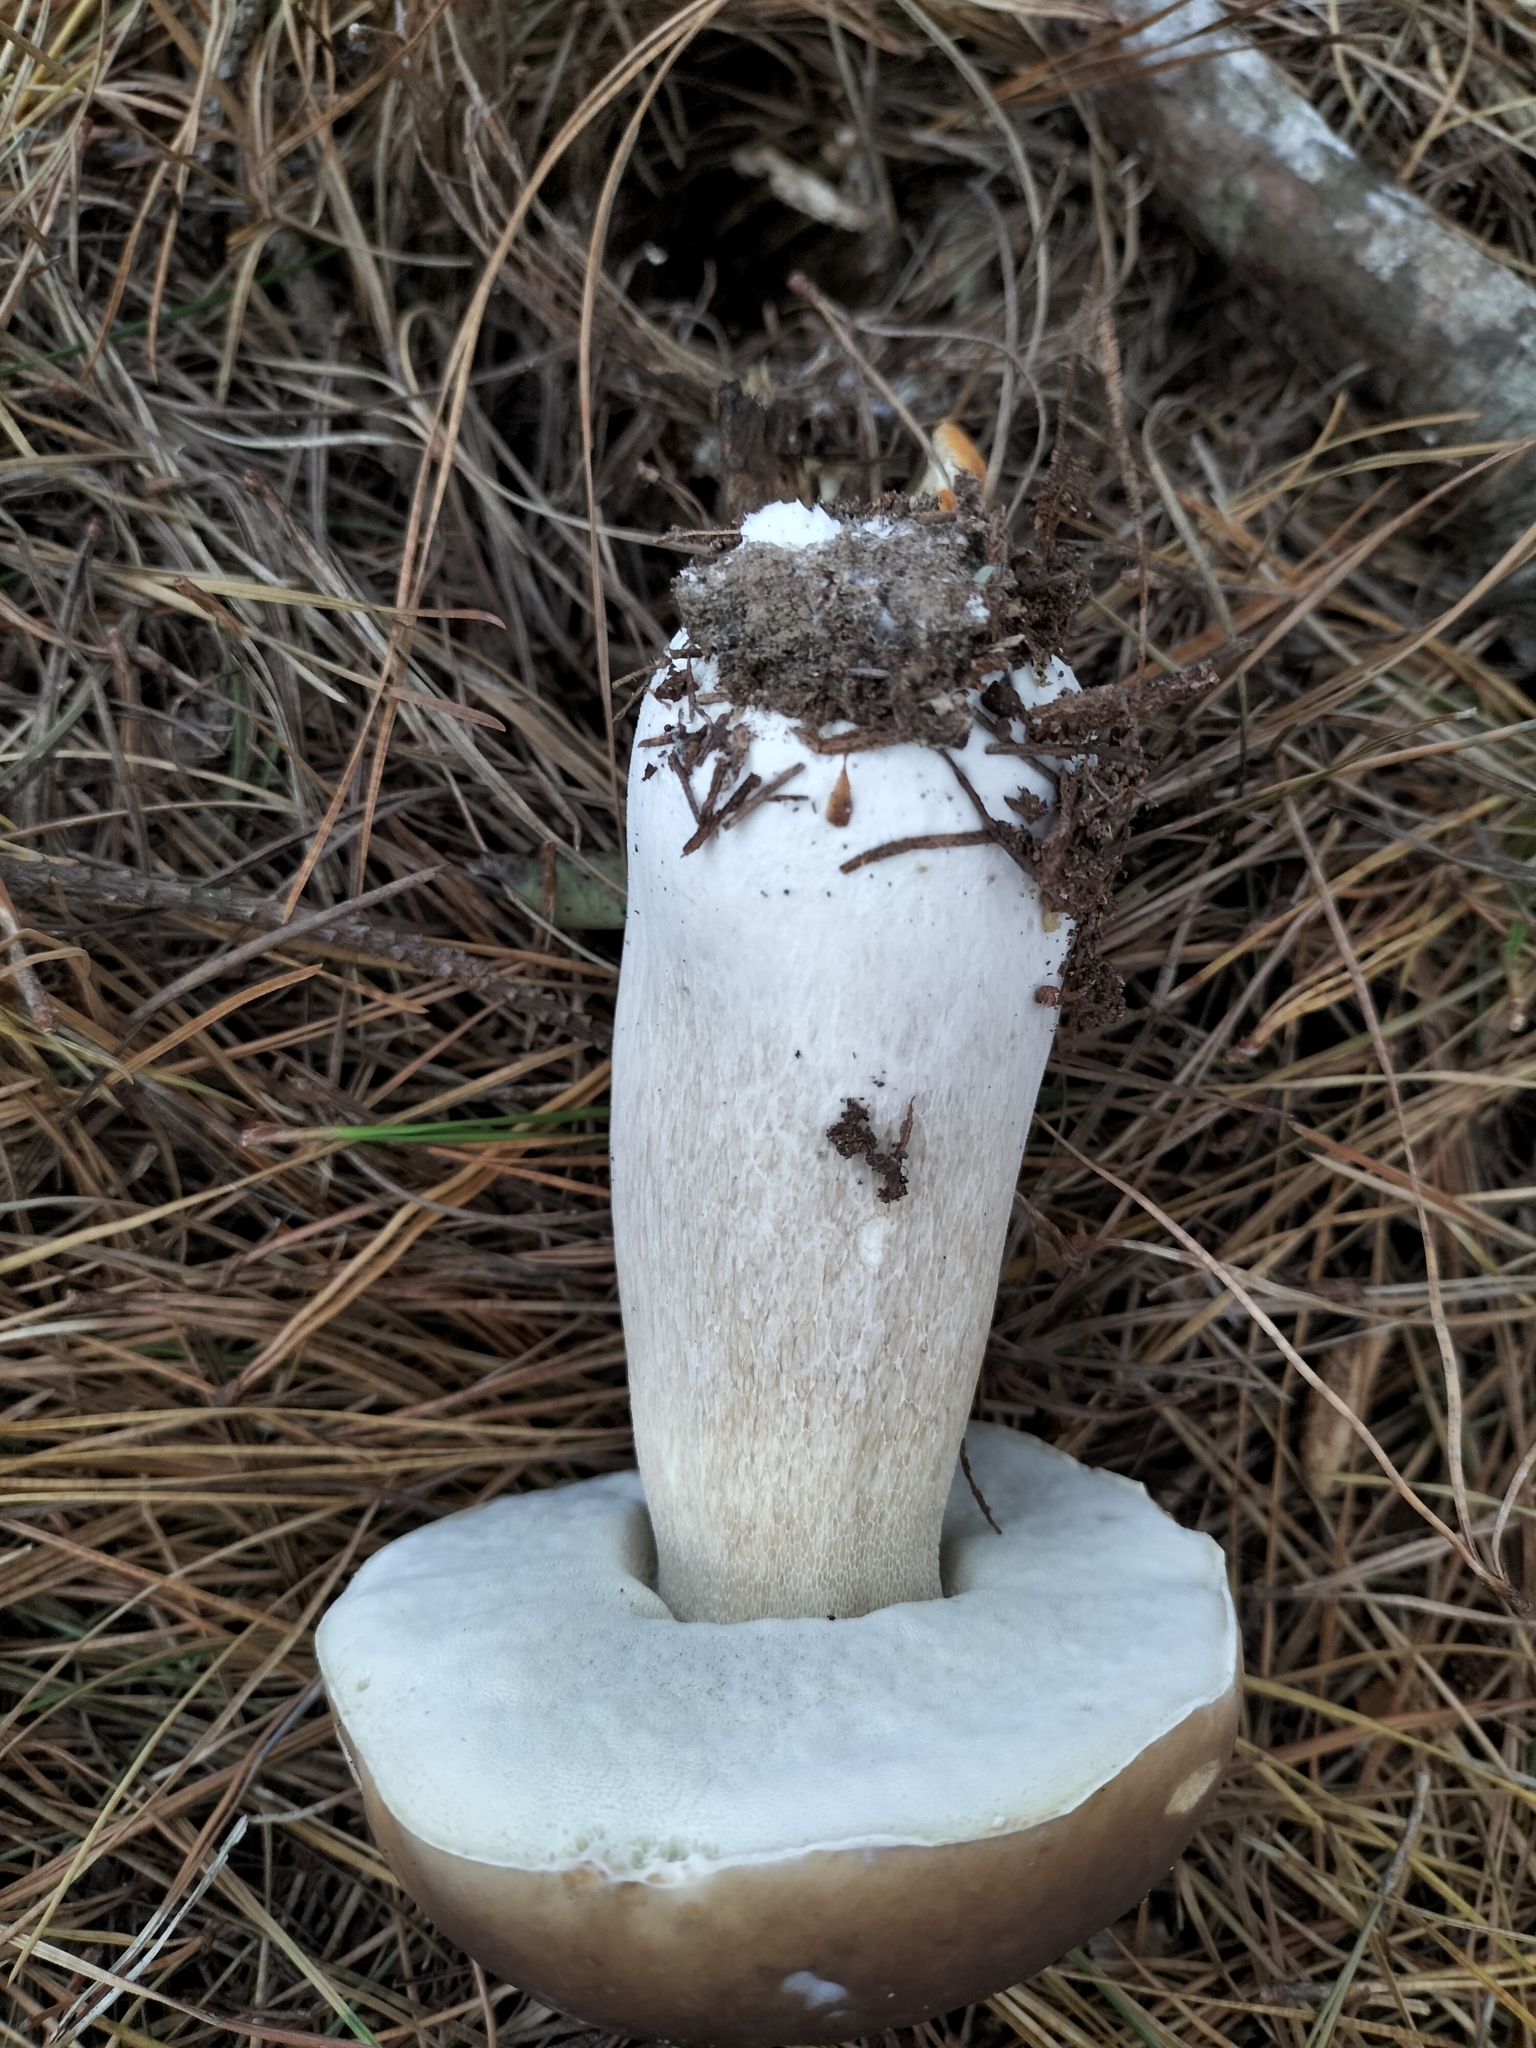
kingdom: Fungi
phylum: Basidiomycota
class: Agaricomycetes
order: Boletales
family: Boletaceae
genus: Boletus
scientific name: Boletus edulis
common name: Cep
